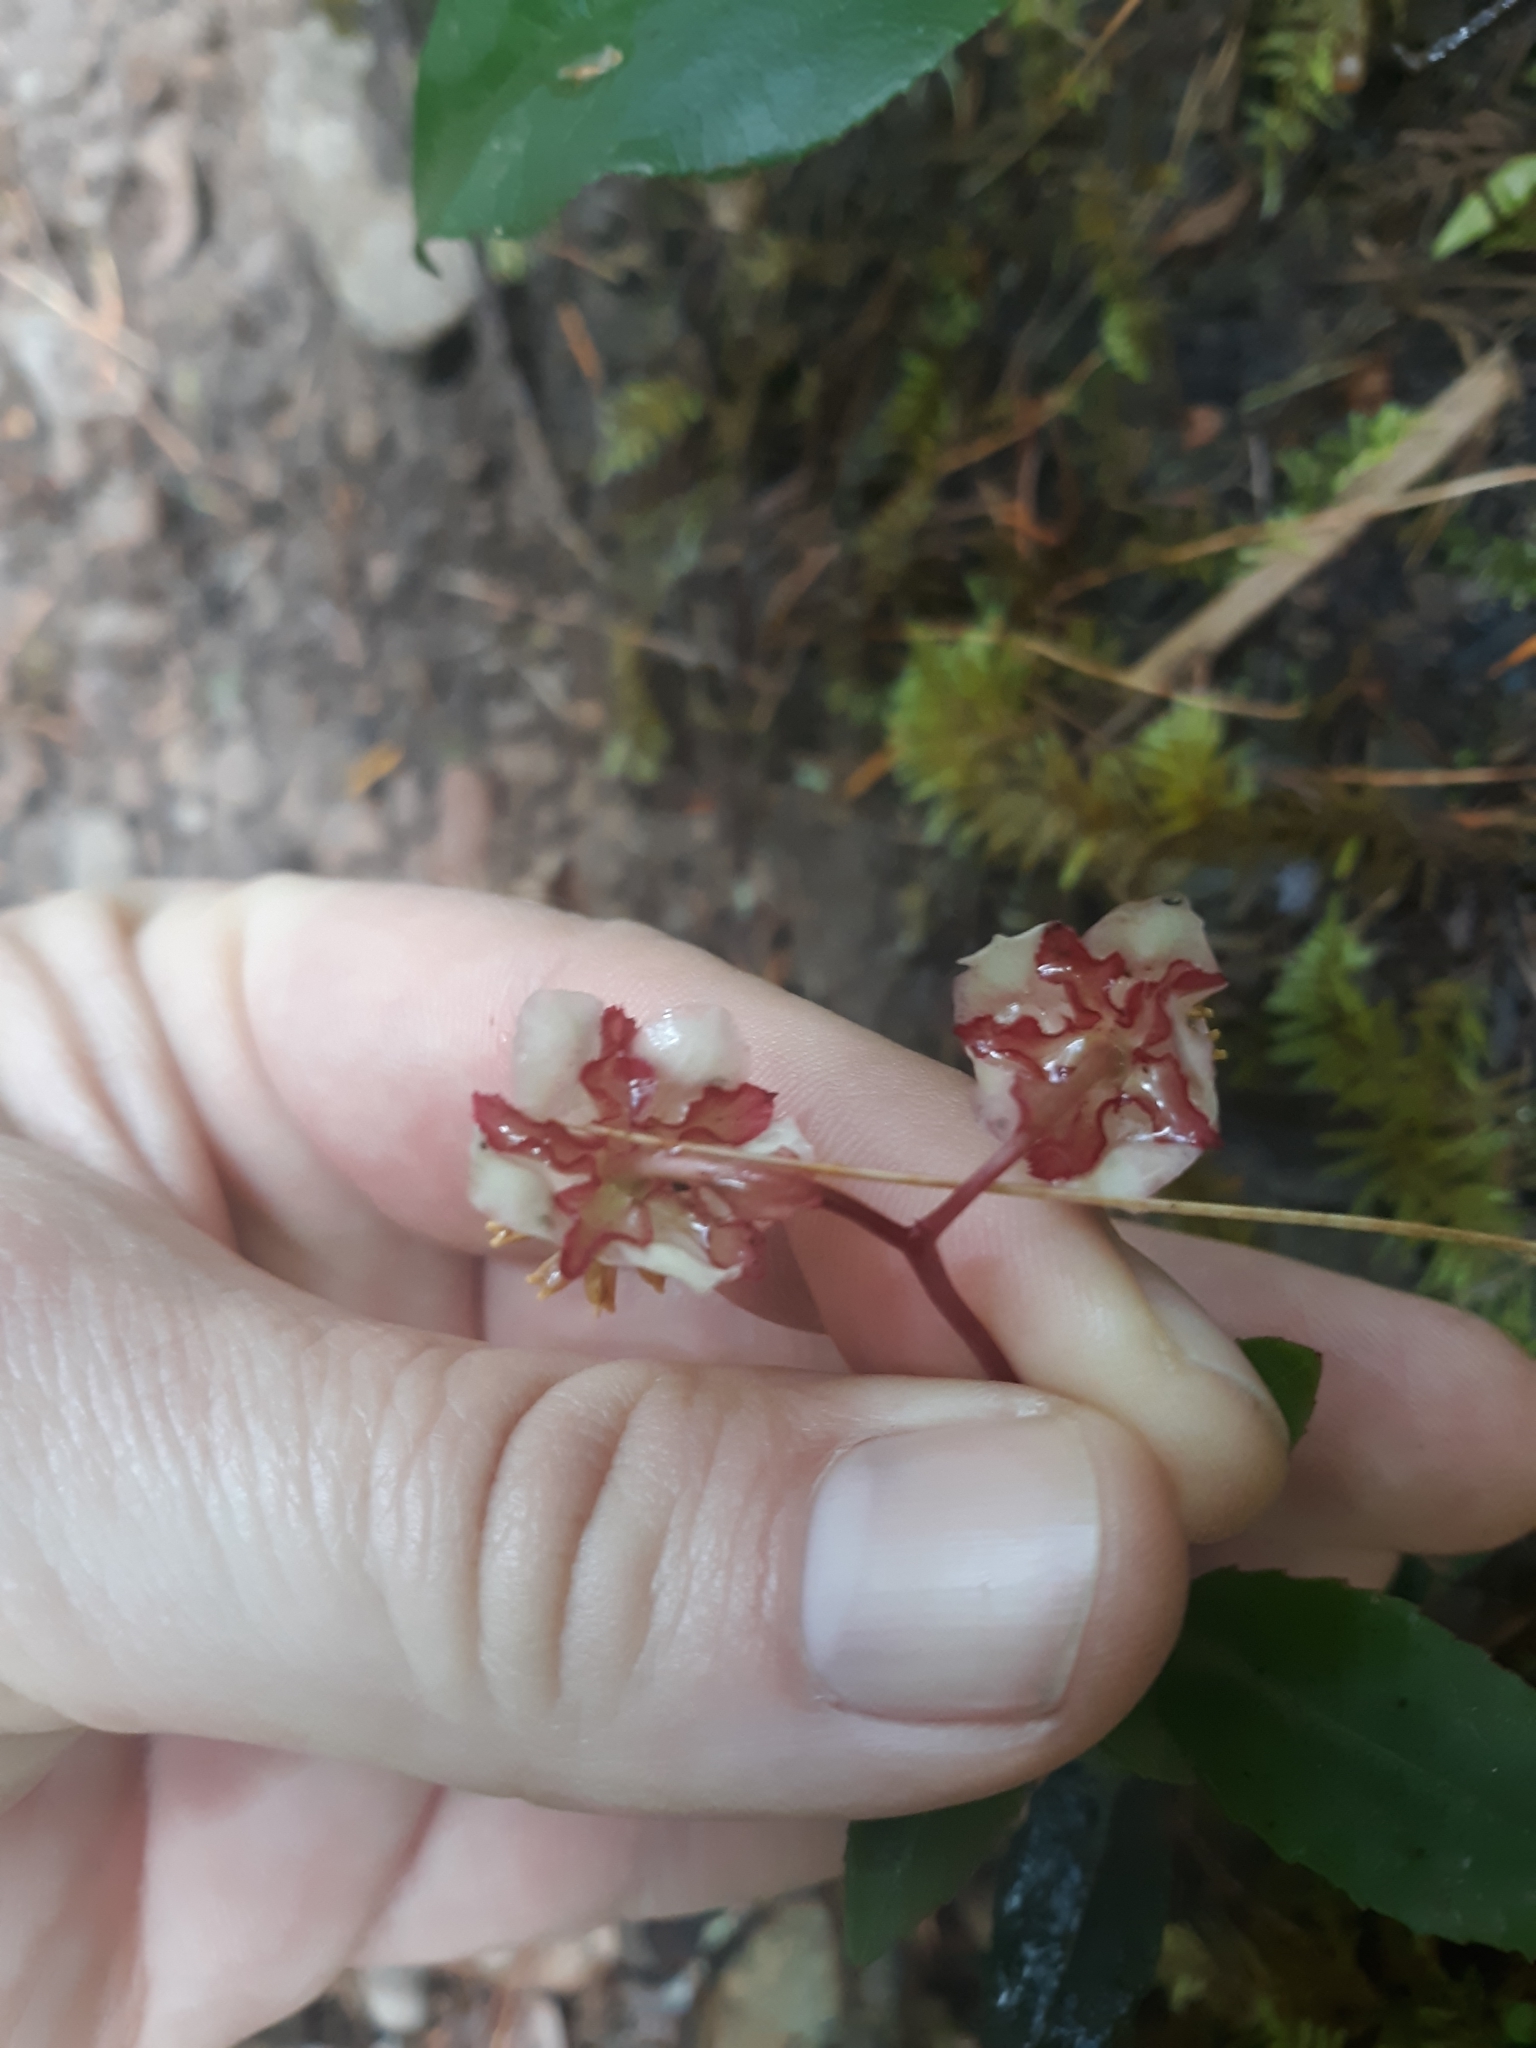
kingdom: Plantae
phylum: Tracheophyta
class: Magnoliopsida
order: Ericales
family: Ericaceae
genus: Chimaphila
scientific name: Chimaphila menziesii
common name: Menzies' pipsissewa
